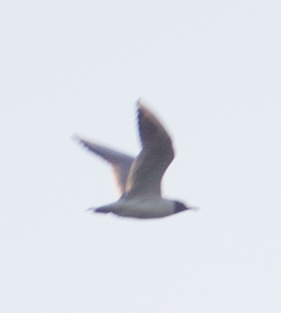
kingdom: Animalia
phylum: Chordata
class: Aves
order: Charadriiformes
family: Laridae
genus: Chroicocephalus
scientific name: Chroicocephalus ridibundus
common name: Black-headed gull
